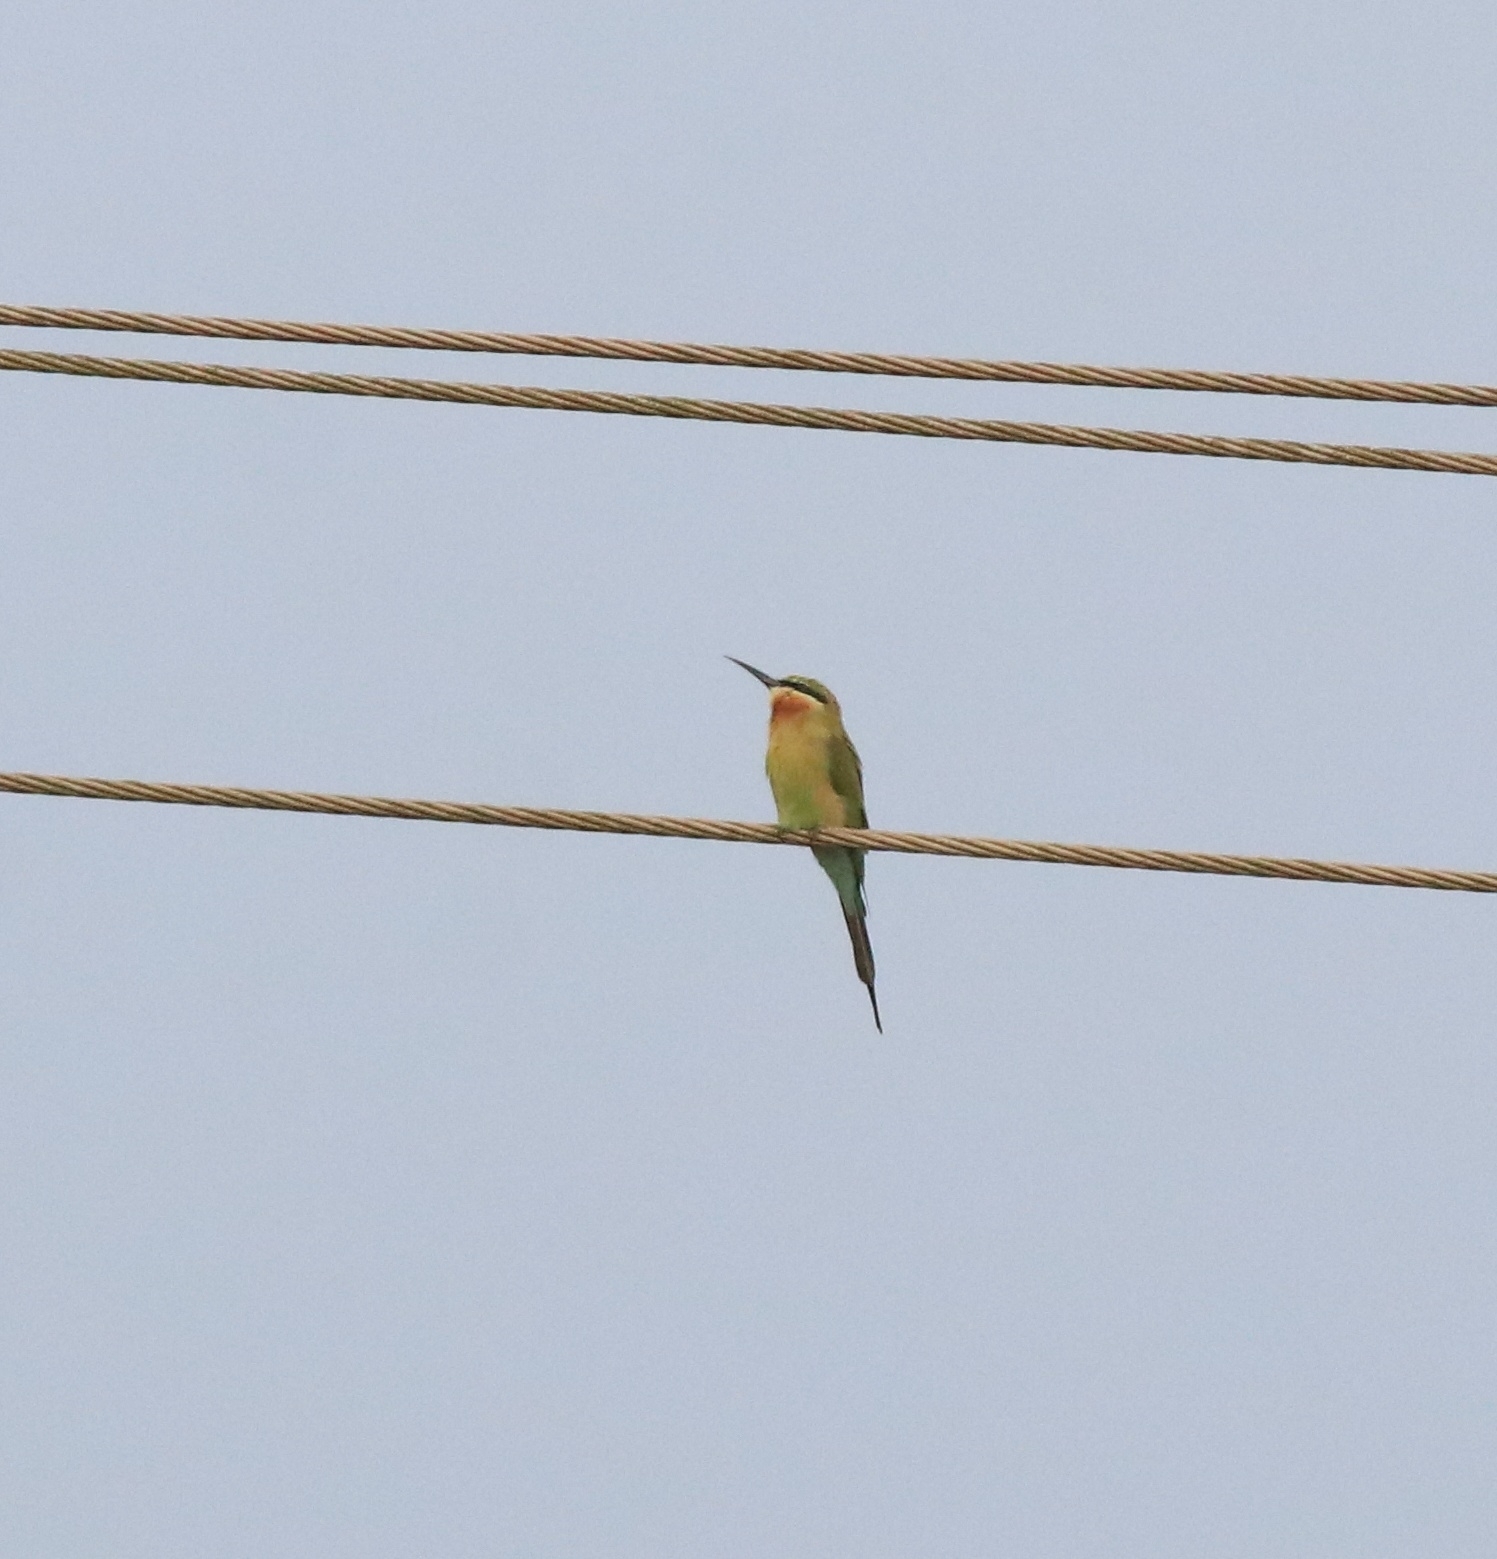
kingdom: Animalia
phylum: Chordata
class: Aves
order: Coraciiformes
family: Meropidae
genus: Merops
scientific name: Merops philippinus
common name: Blue-tailed bee-eater
